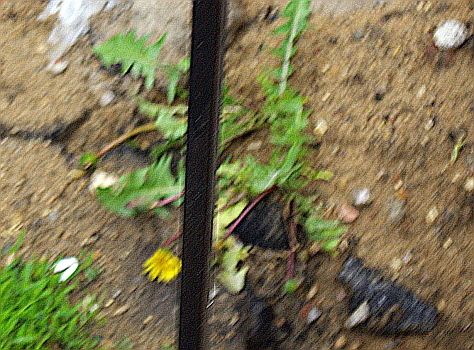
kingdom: Plantae
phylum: Tracheophyta
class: Magnoliopsida
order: Asterales
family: Asteraceae
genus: Taraxacum
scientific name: Taraxacum officinale
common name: Common dandelion
